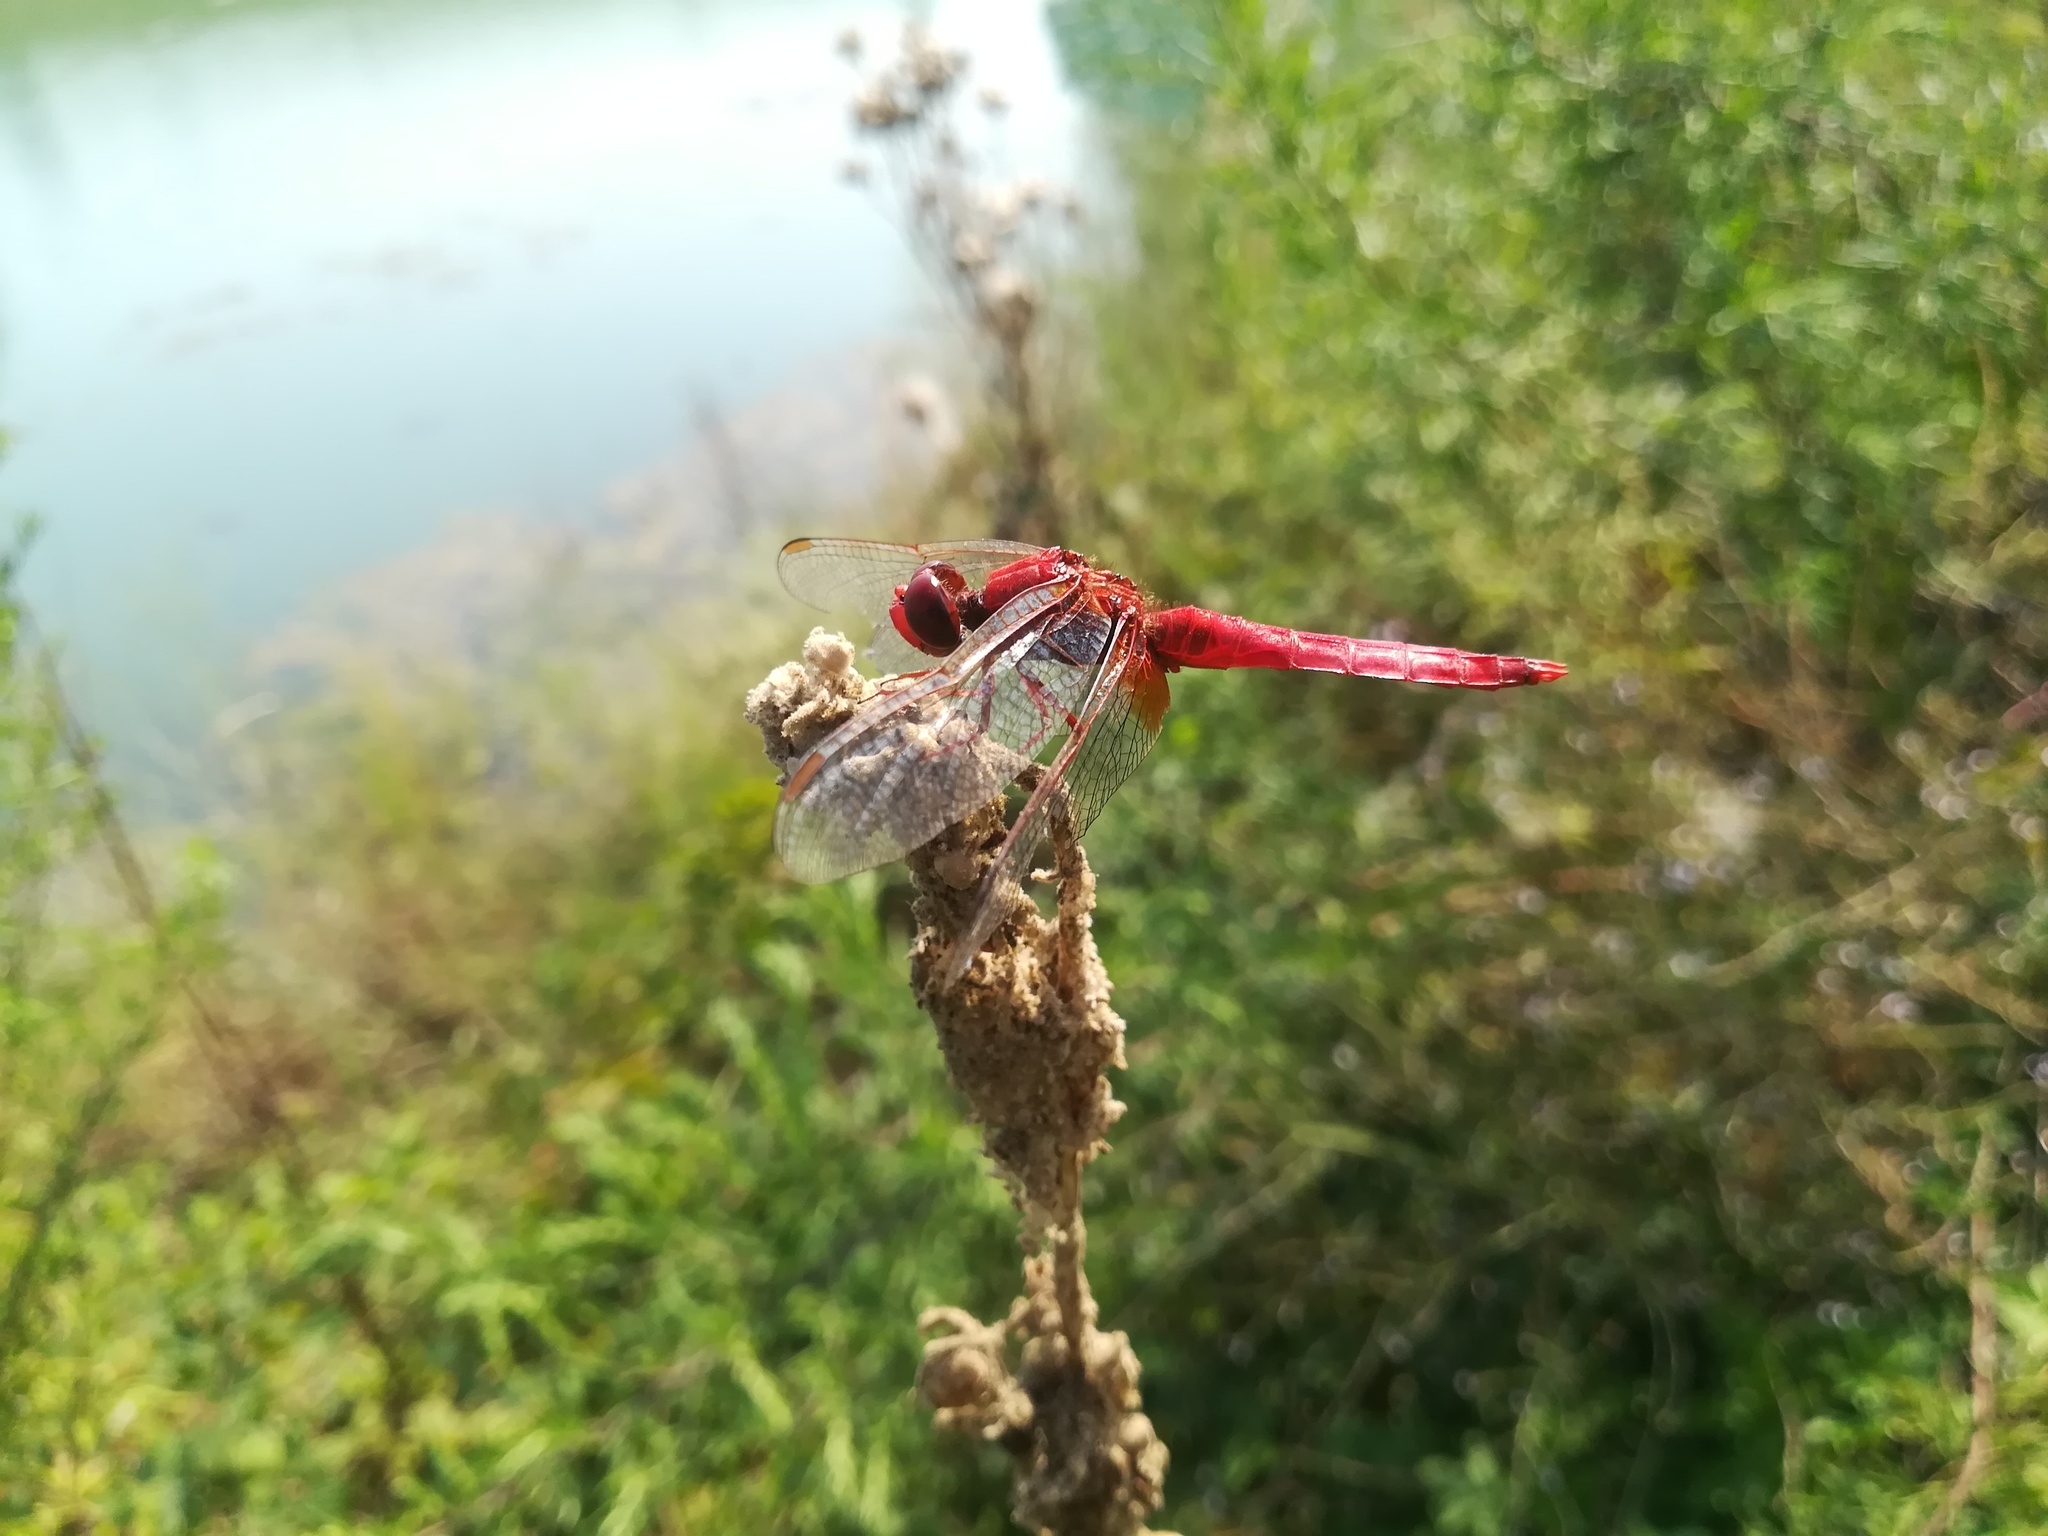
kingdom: Animalia
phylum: Arthropoda
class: Insecta
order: Odonata
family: Libellulidae
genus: Crocothemis
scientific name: Crocothemis erythraea
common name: Scarlet dragonfly
